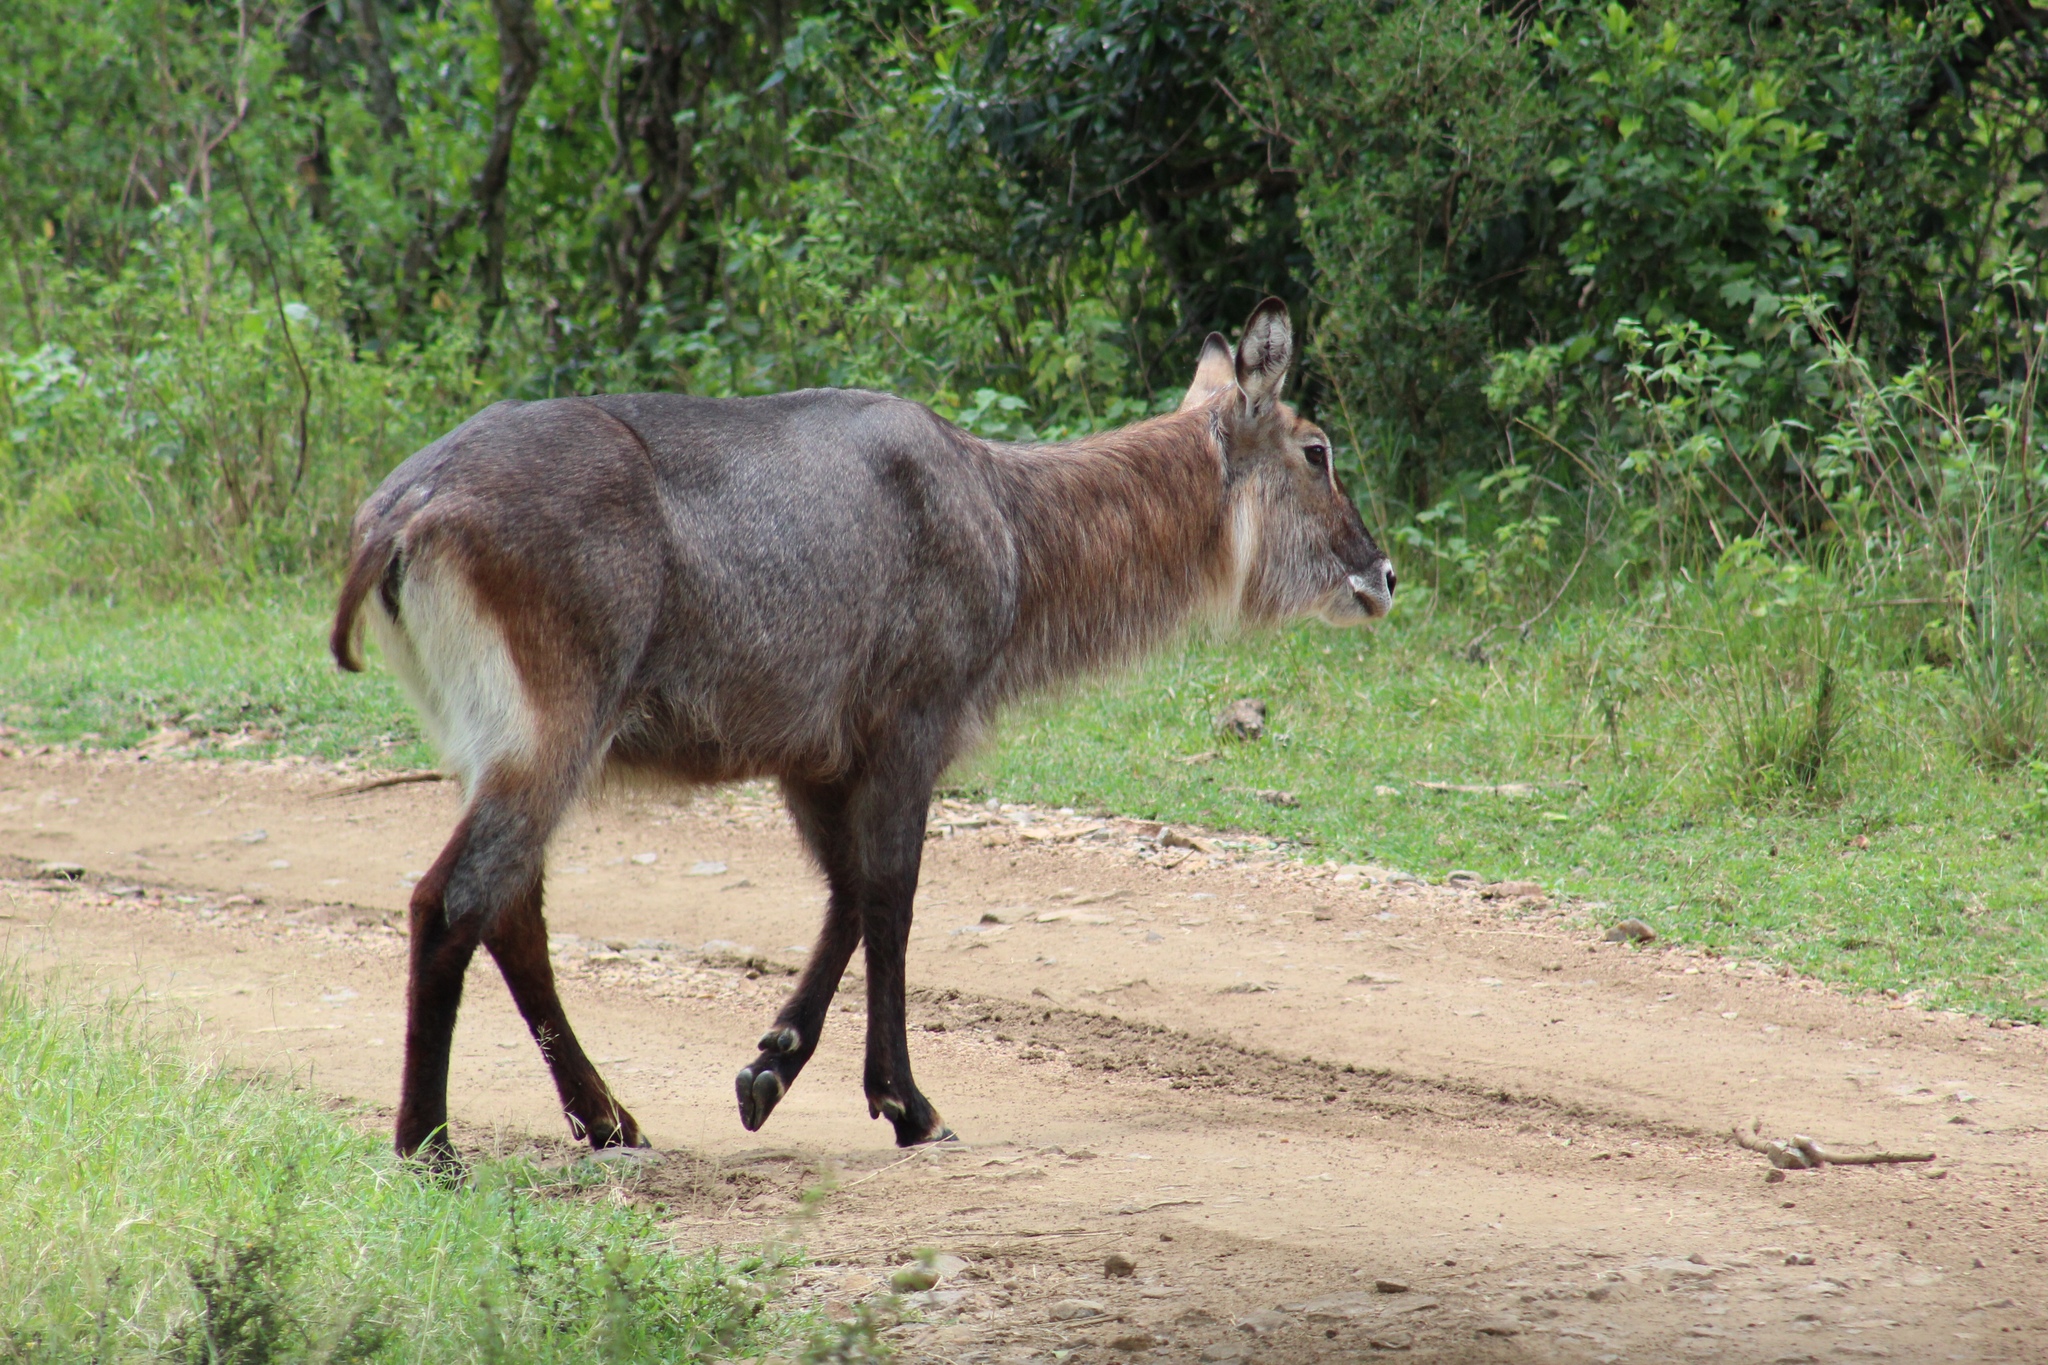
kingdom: Animalia
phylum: Chordata
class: Mammalia
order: Artiodactyla
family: Bovidae
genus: Kobus
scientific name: Kobus ellipsiprymnus
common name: Waterbuck
